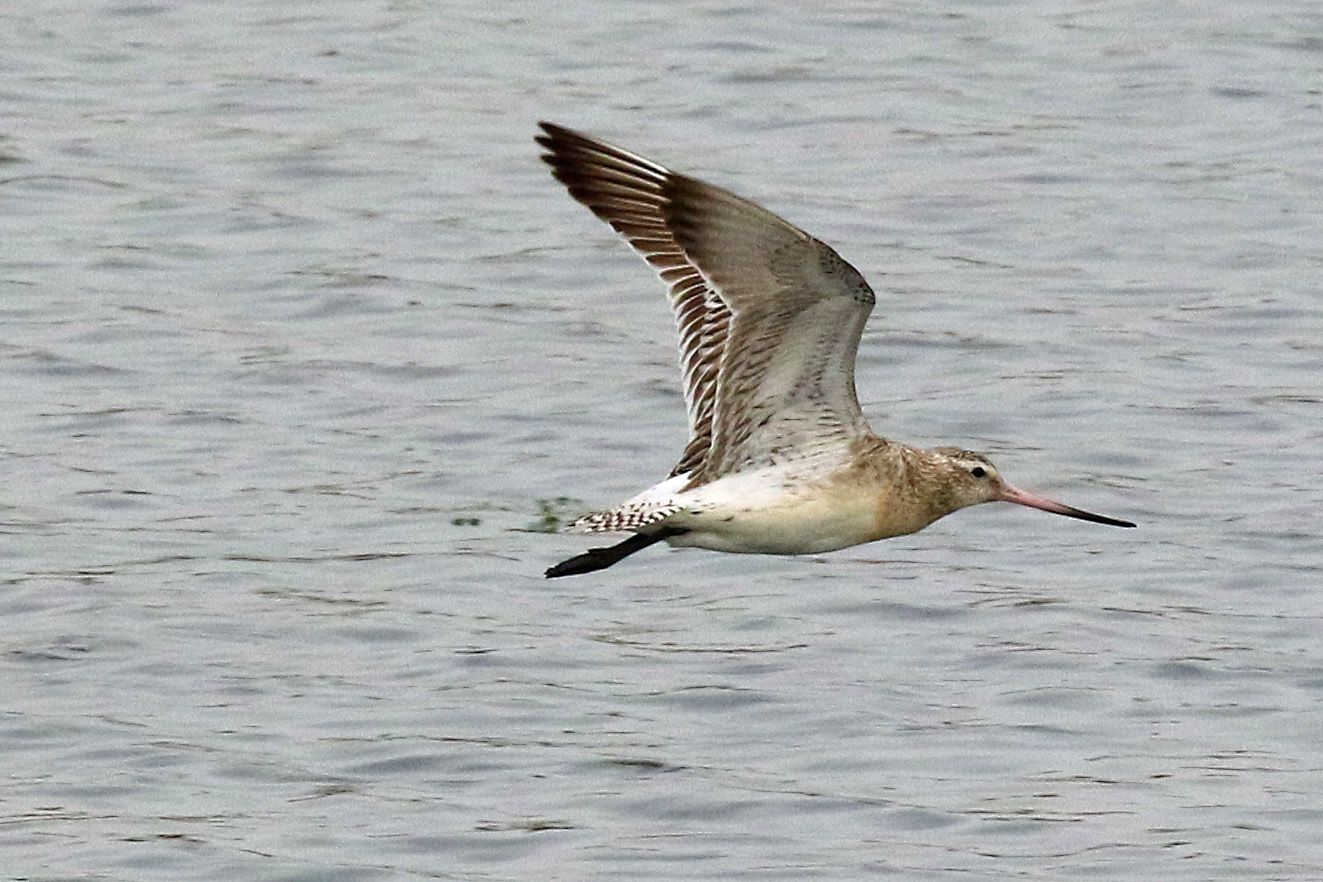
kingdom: Animalia
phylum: Chordata
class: Aves
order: Charadriiformes
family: Scolopacidae
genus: Limosa
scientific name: Limosa lapponica
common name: Bar-tailed godwit
